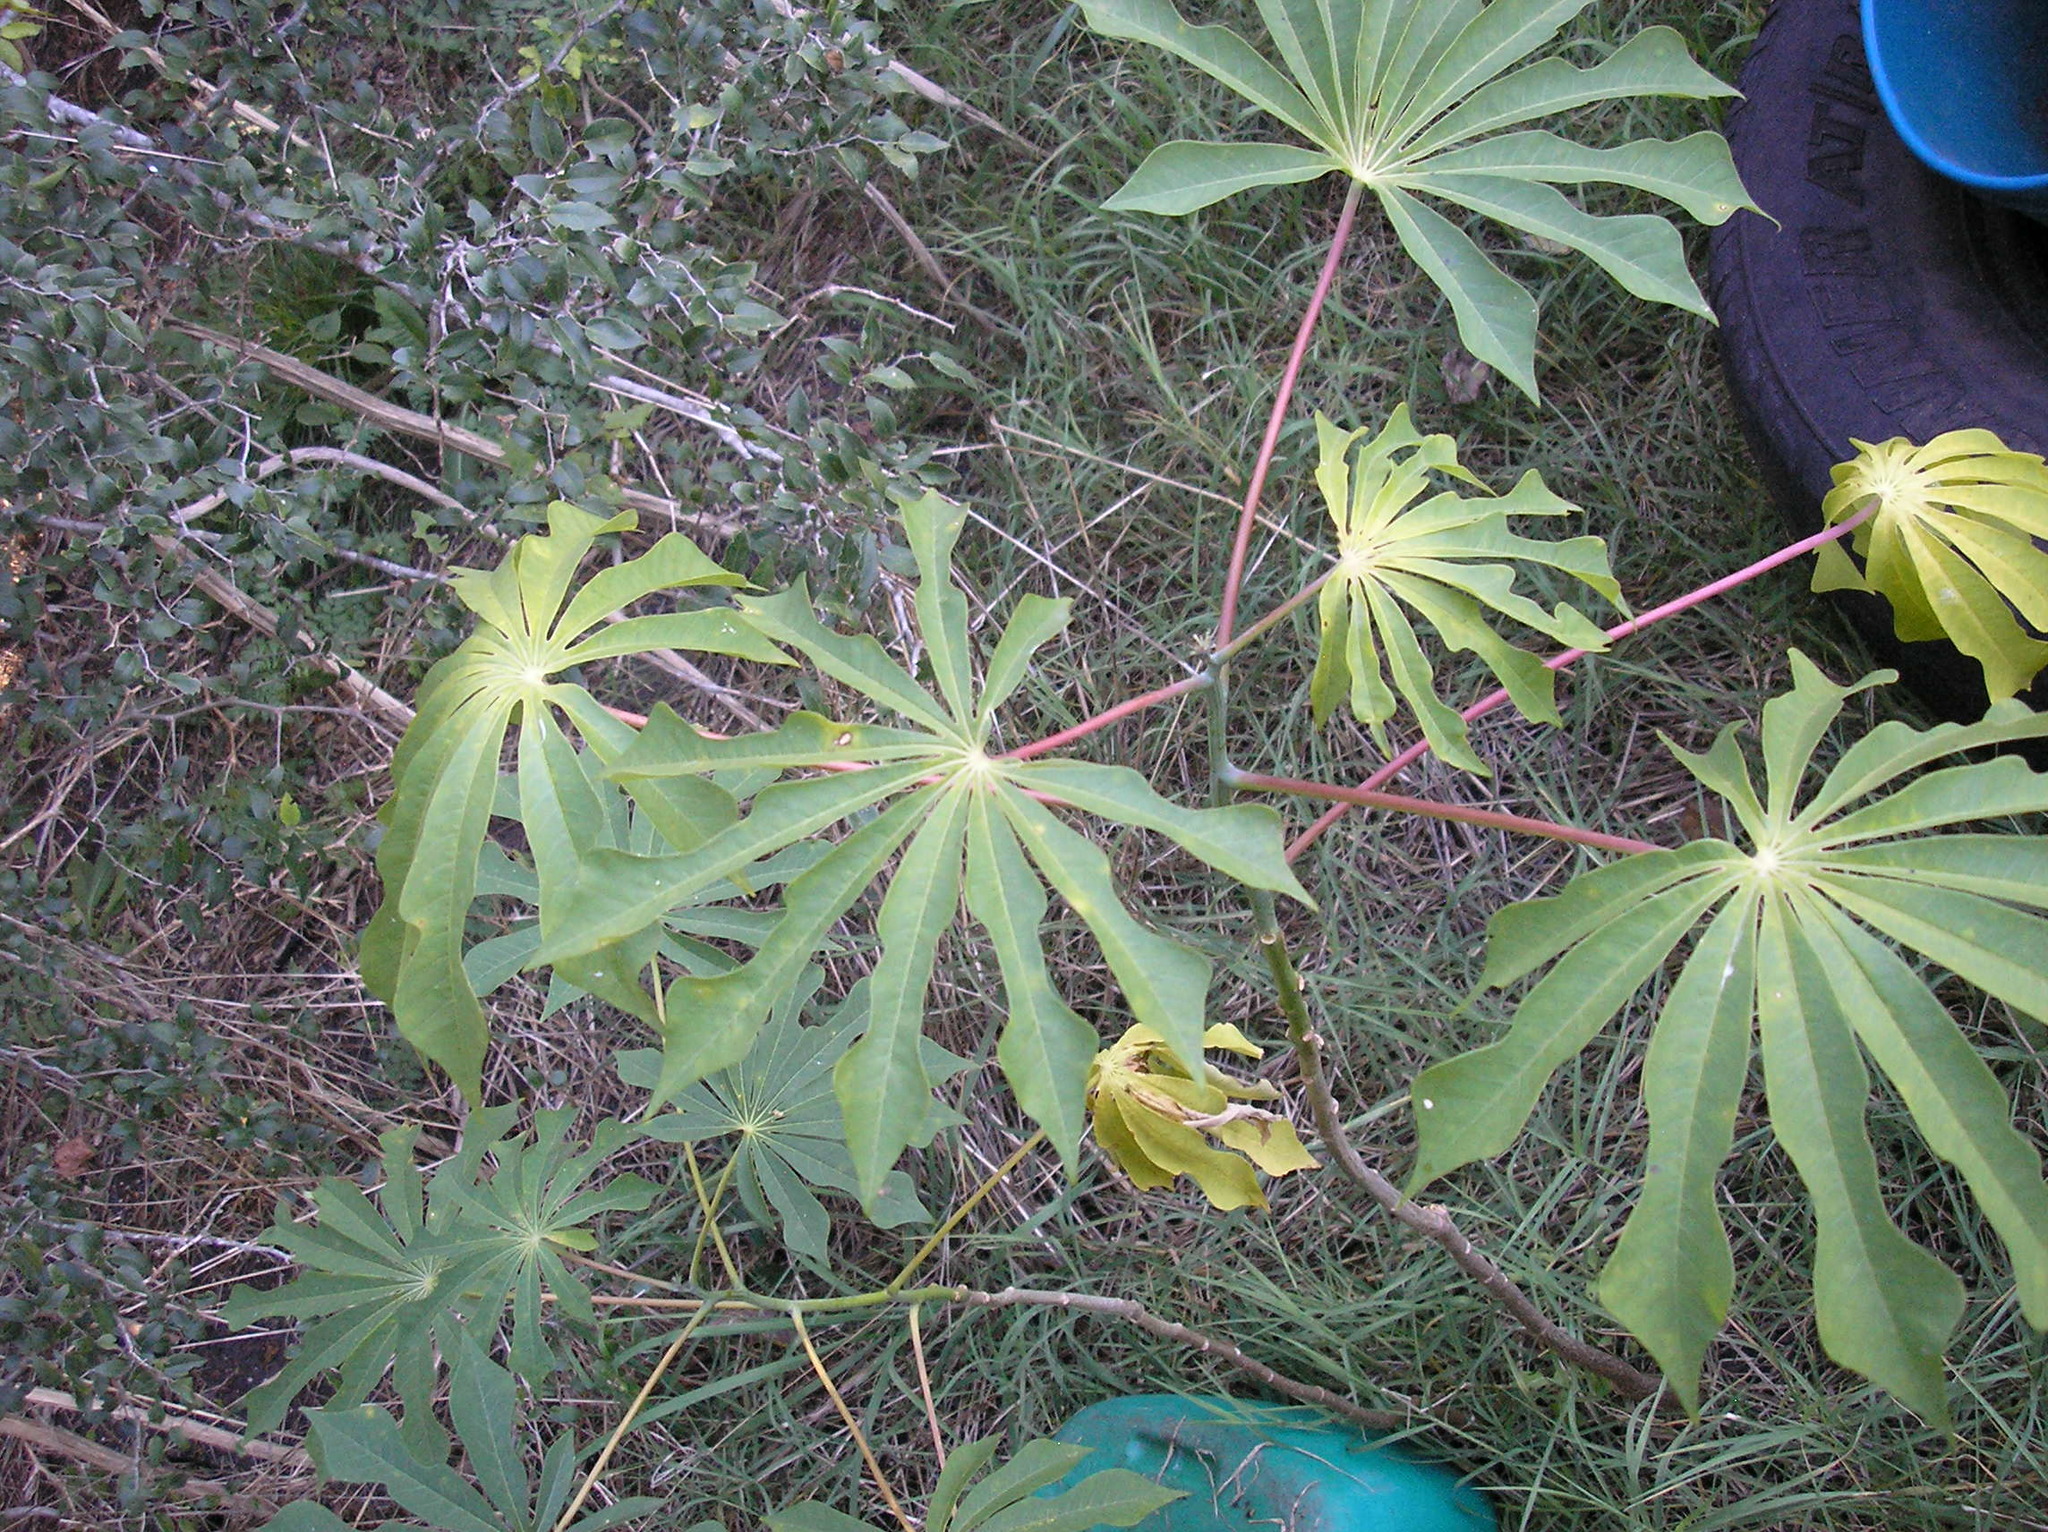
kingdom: Plantae
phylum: Tracheophyta
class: Magnoliopsida
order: Malpighiales
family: Euphorbiaceae
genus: Manihot
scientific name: Manihot grahamii
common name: Graham's manihot
